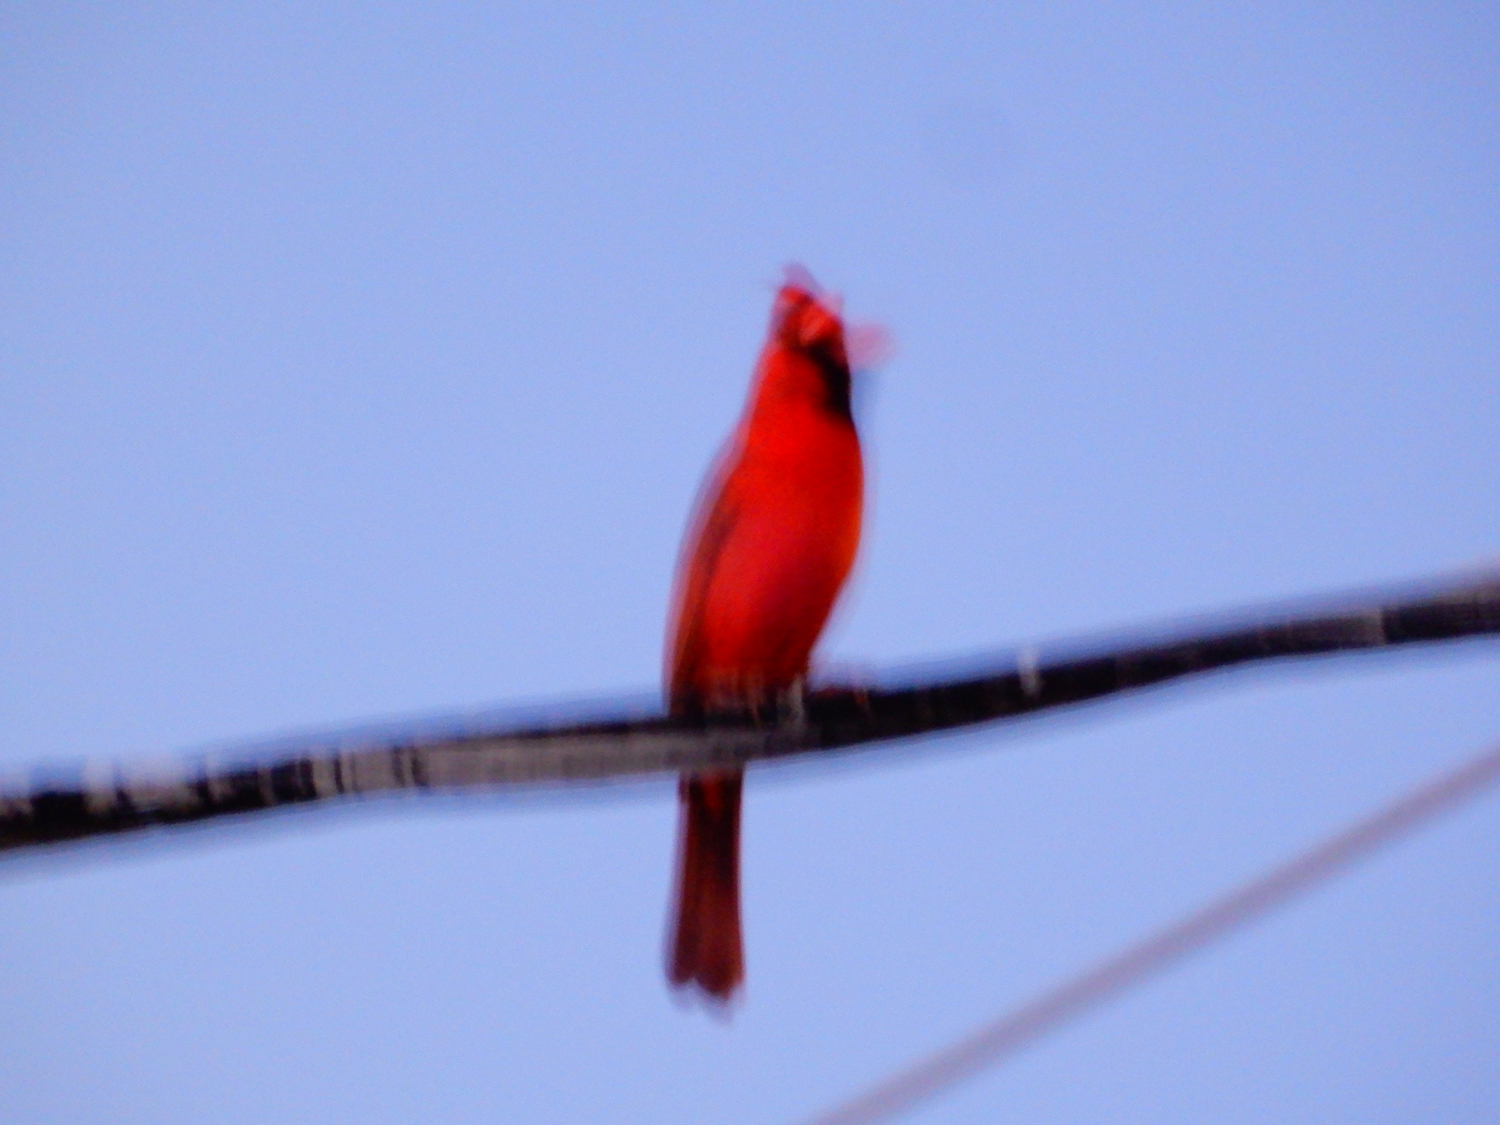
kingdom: Animalia
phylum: Chordata
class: Aves
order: Passeriformes
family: Cardinalidae
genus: Cardinalis
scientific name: Cardinalis cardinalis
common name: Northern cardinal
